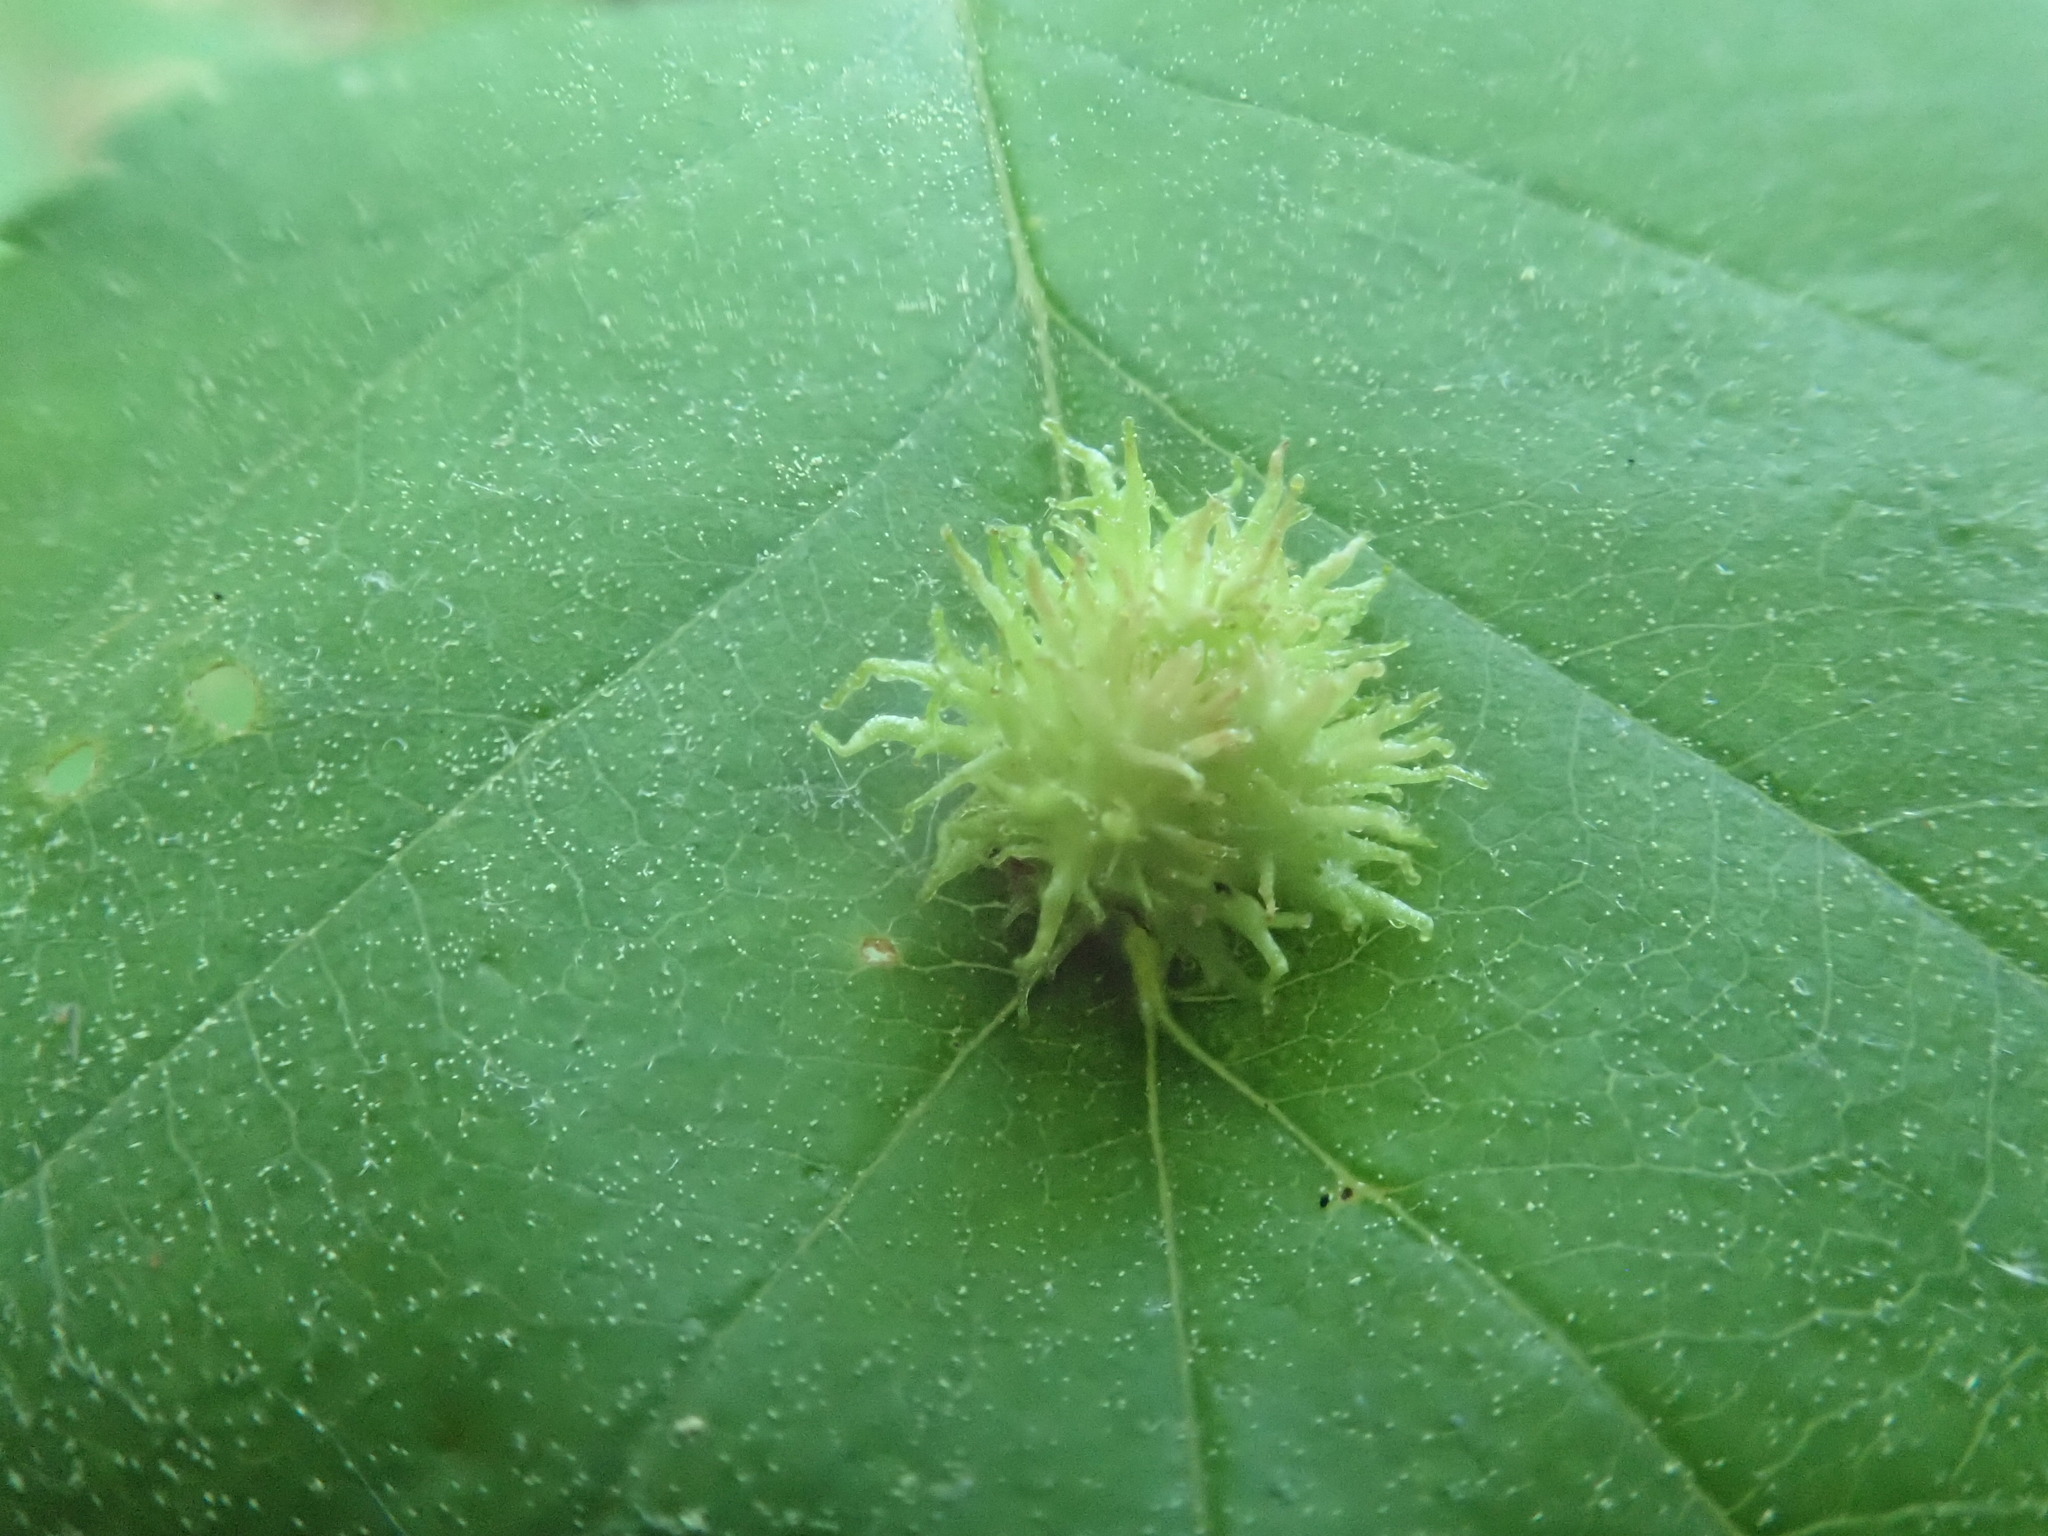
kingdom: Animalia
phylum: Arthropoda
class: Insecta
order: Diptera
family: Cecidomyiidae
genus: Blaesodiplosis
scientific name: Blaesodiplosis crataegibedeguar
